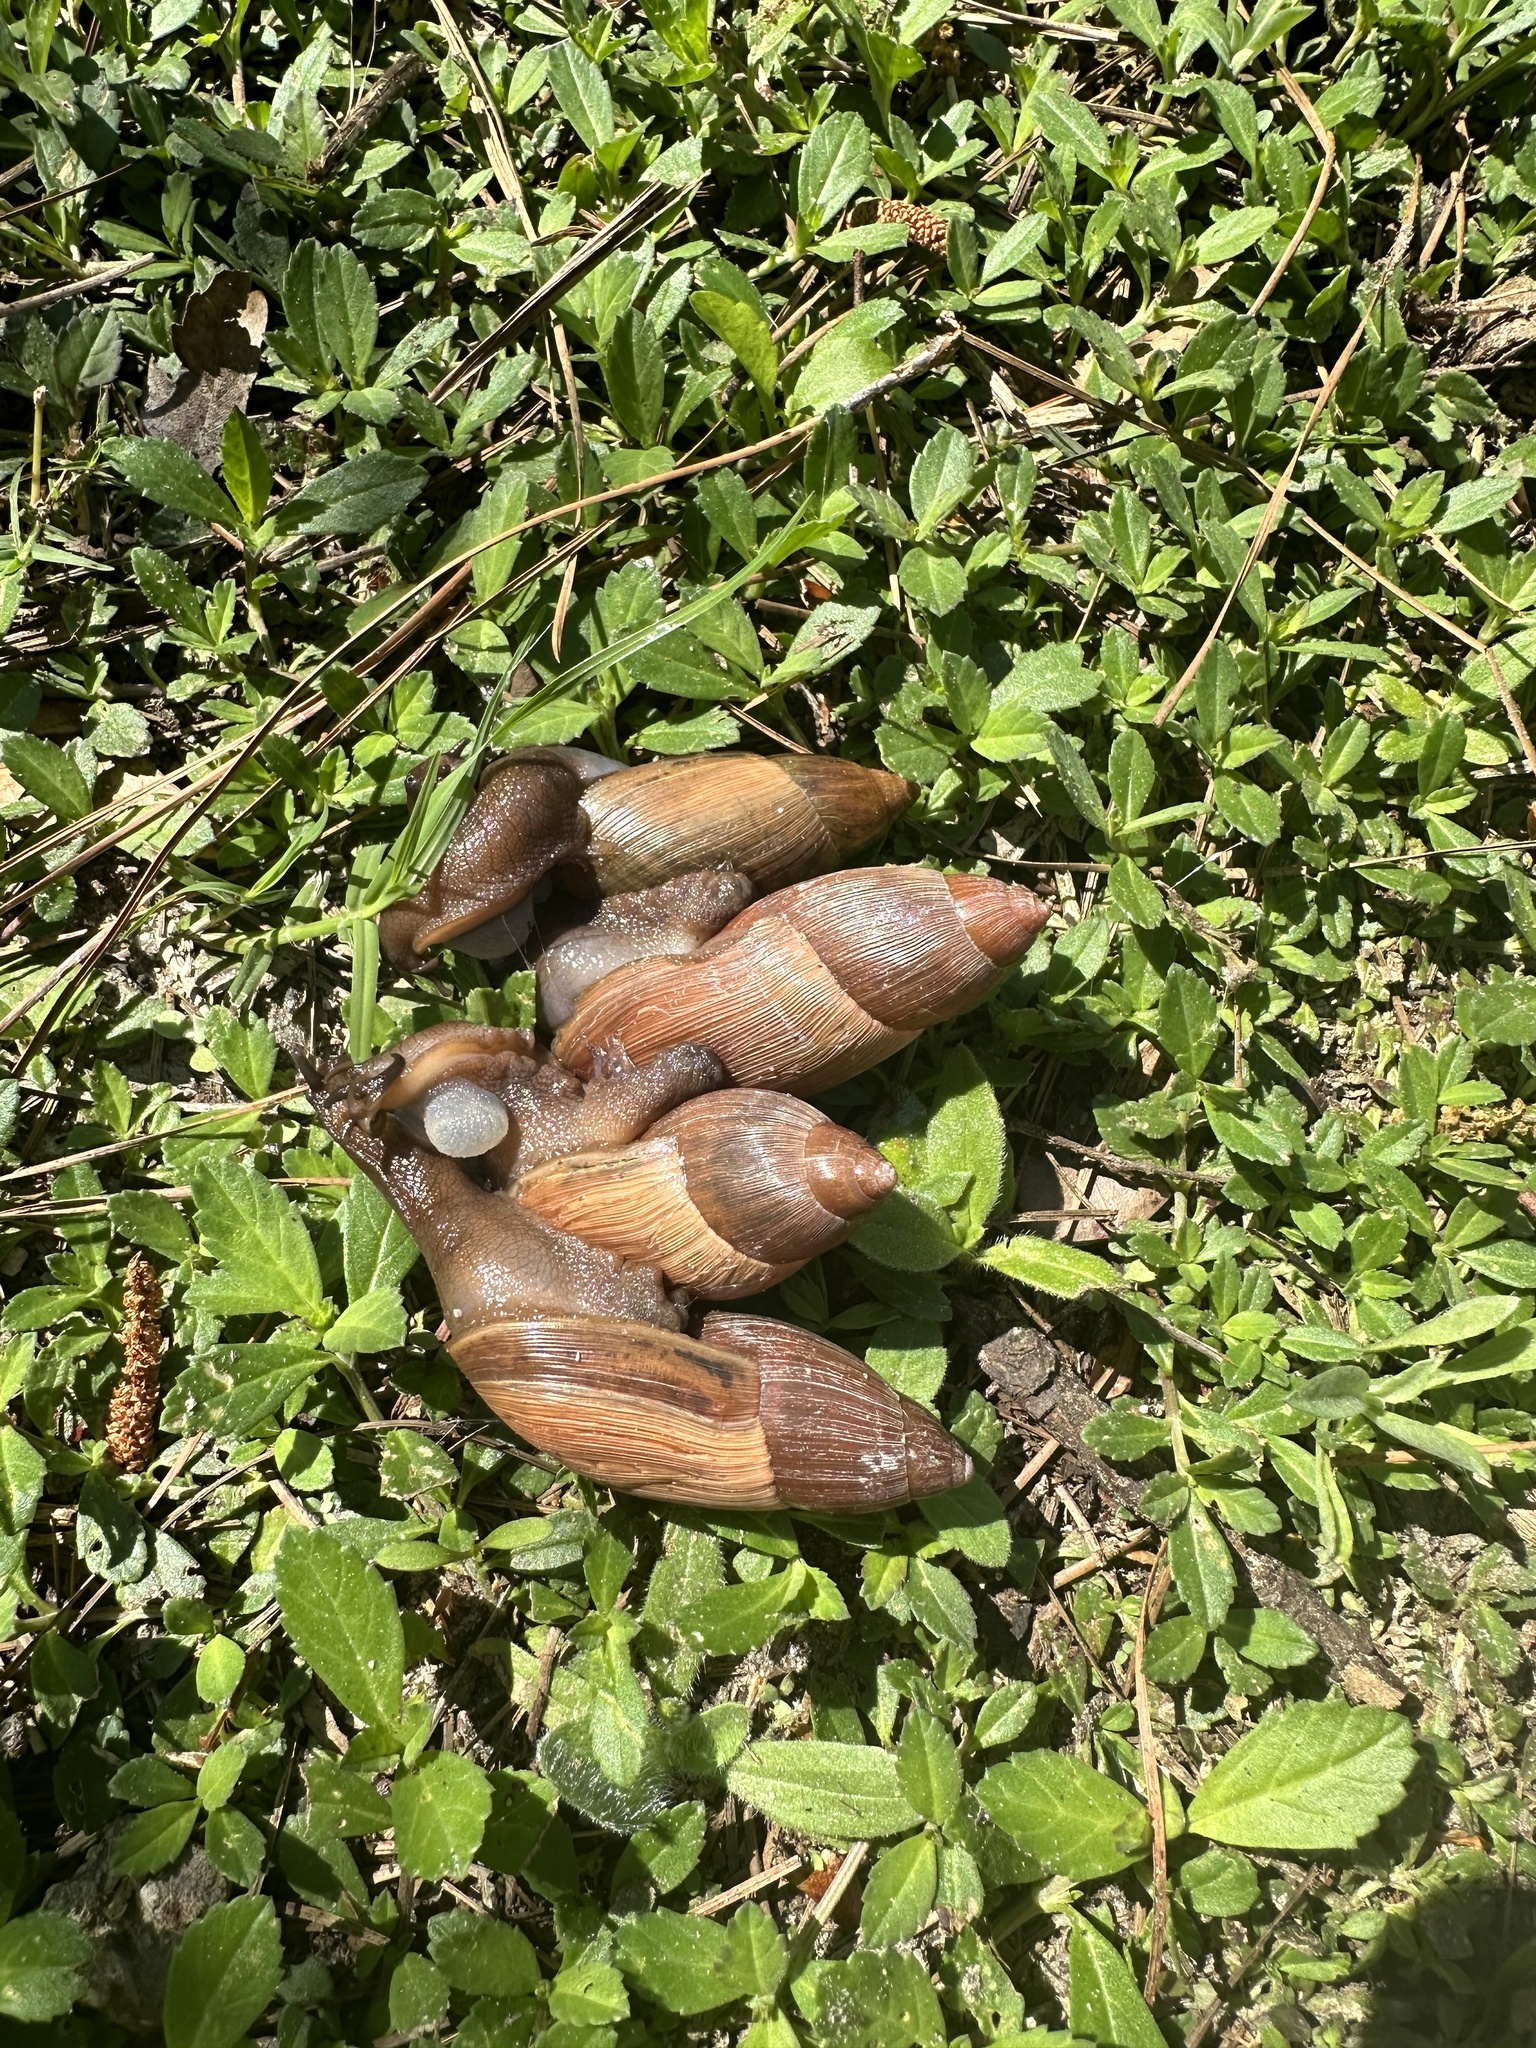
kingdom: Animalia
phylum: Mollusca
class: Gastropoda
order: Stylommatophora
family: Spiraxidae
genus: Euglandina
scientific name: Euglandina rosea
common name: Rosy wolfsnail
